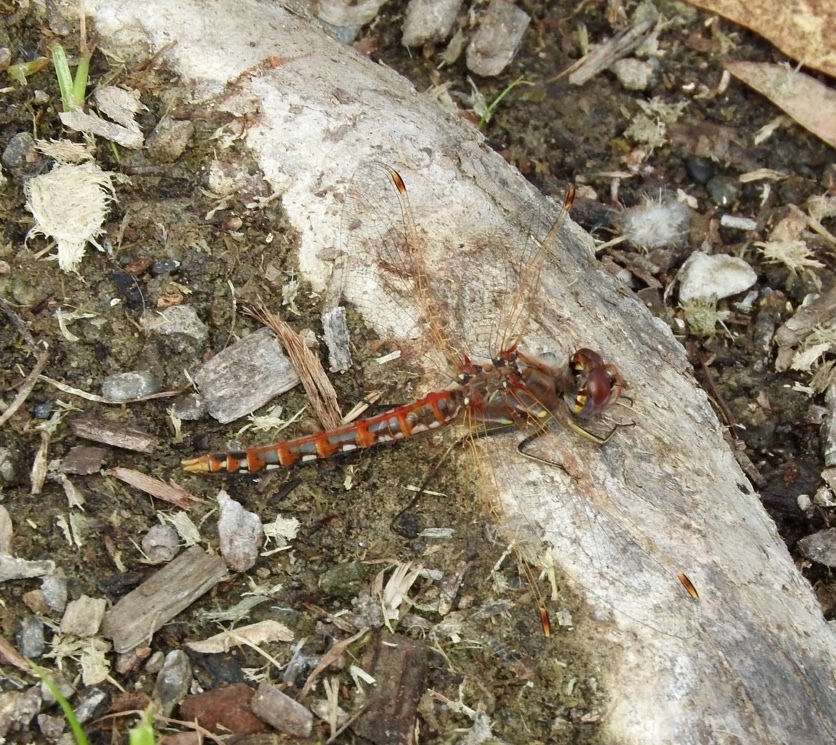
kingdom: Animalia
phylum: Arthropoda
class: Insecta
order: Odonata
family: Libellulidae
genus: Sympetrum
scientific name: Sympetrum corruptum
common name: Variegated meadowhawk
